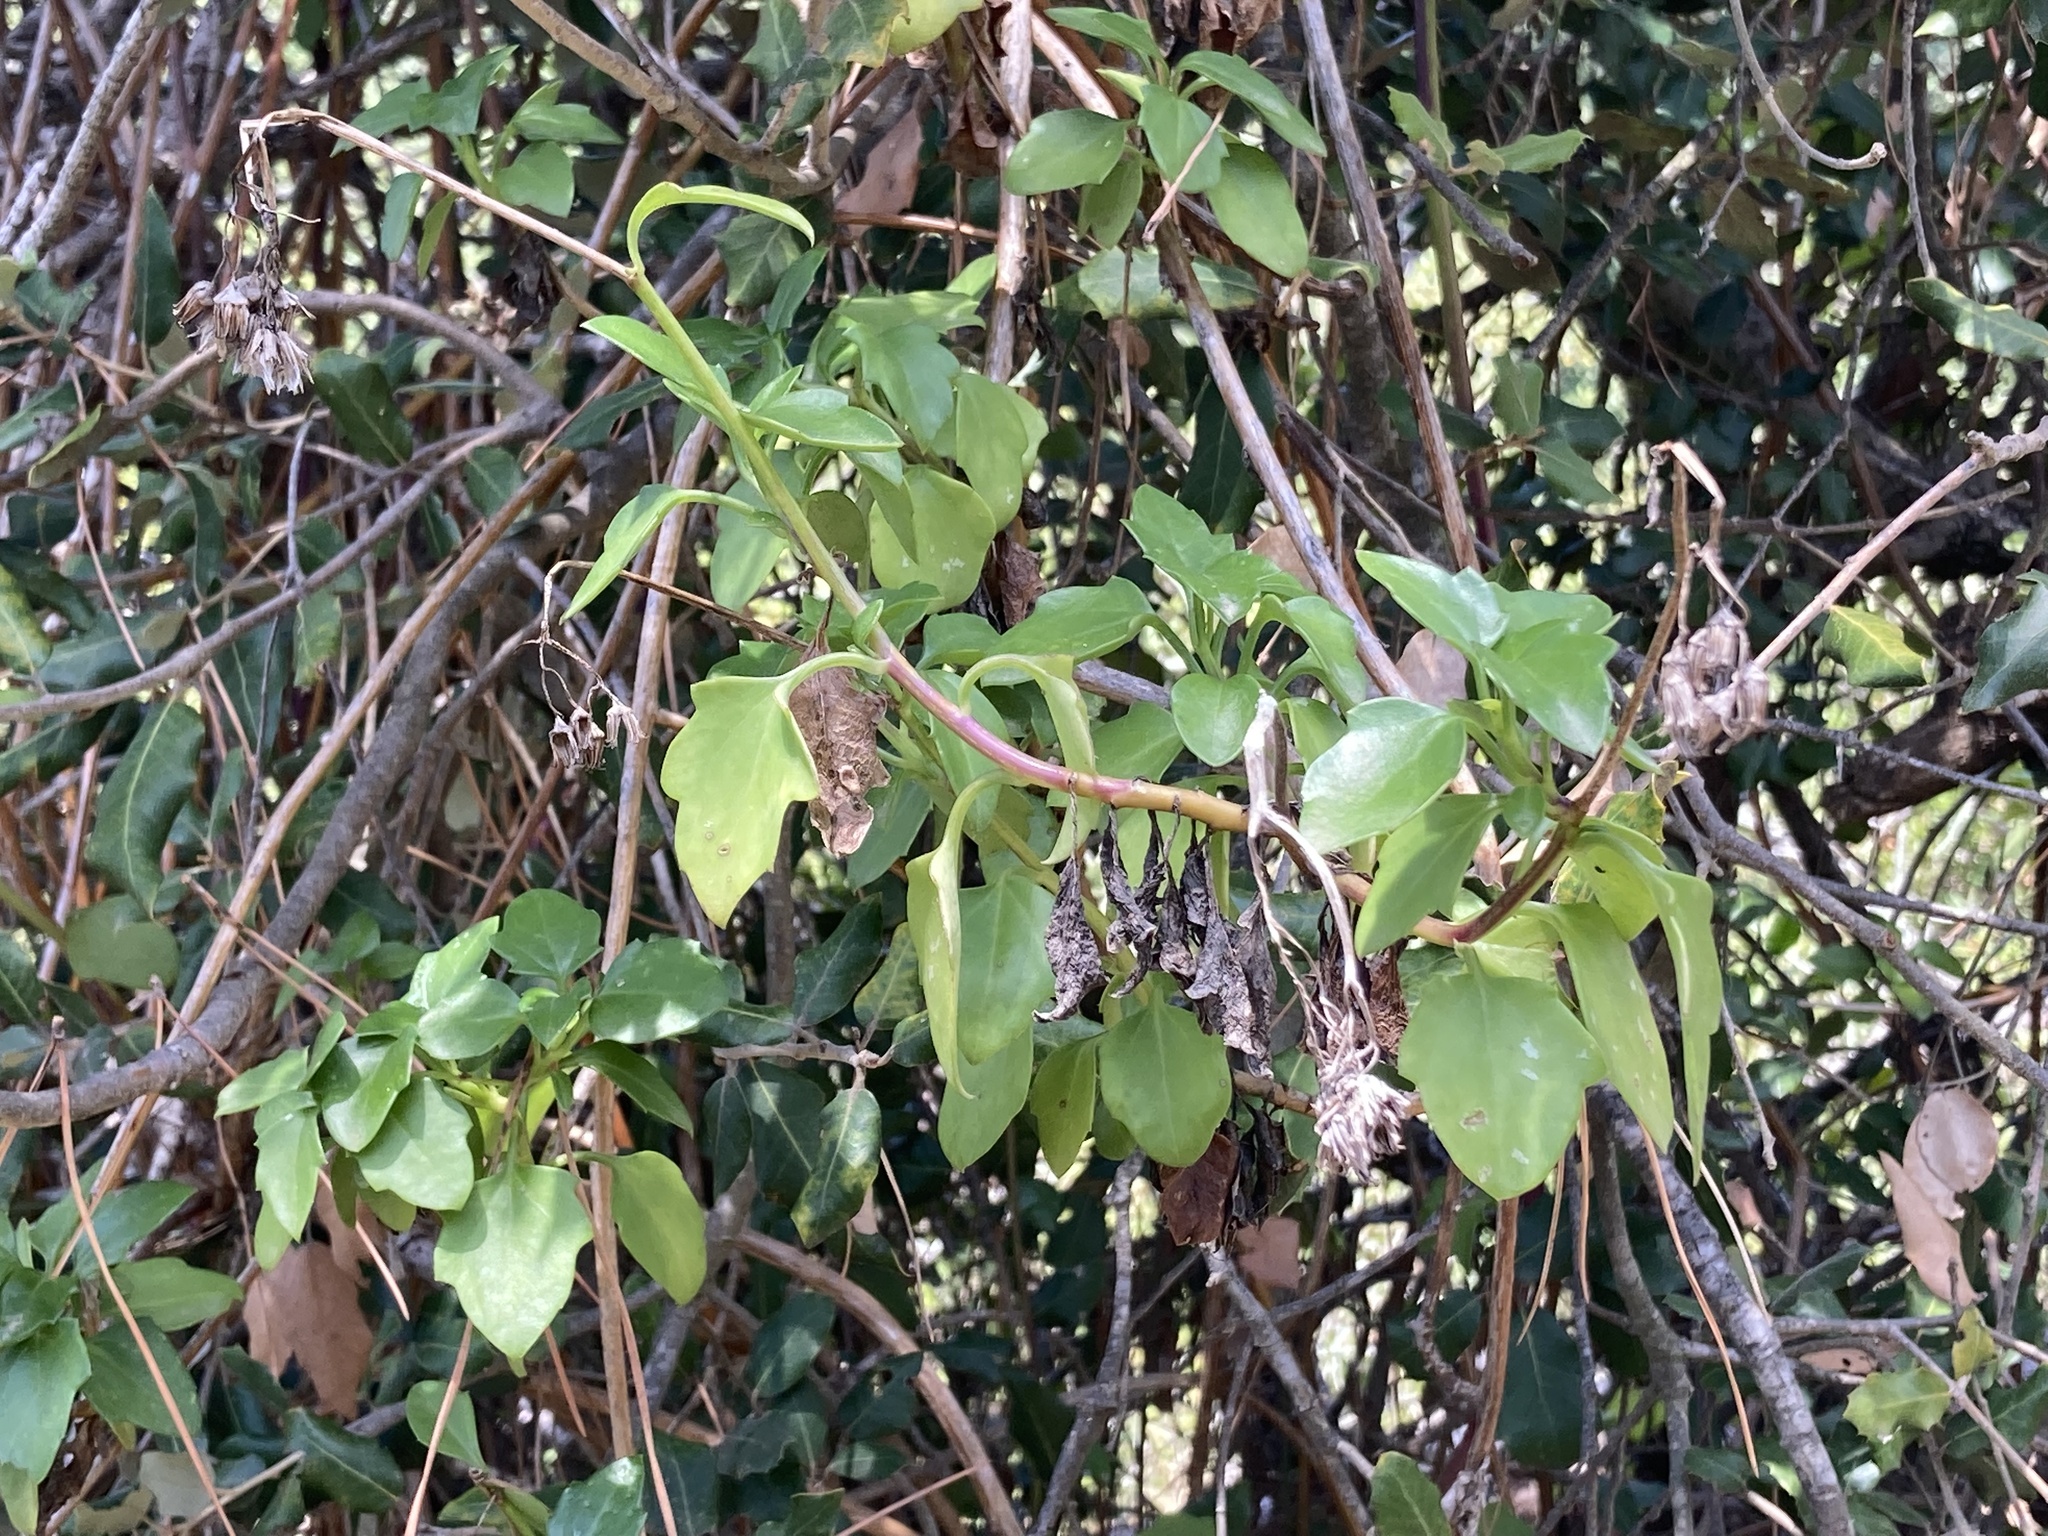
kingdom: Plantae
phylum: Tracheophyta
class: Magnoliopsida
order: Asterales
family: Asteraceae
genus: Senecio
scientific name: Senecio angulatus
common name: Climbing groundsel
